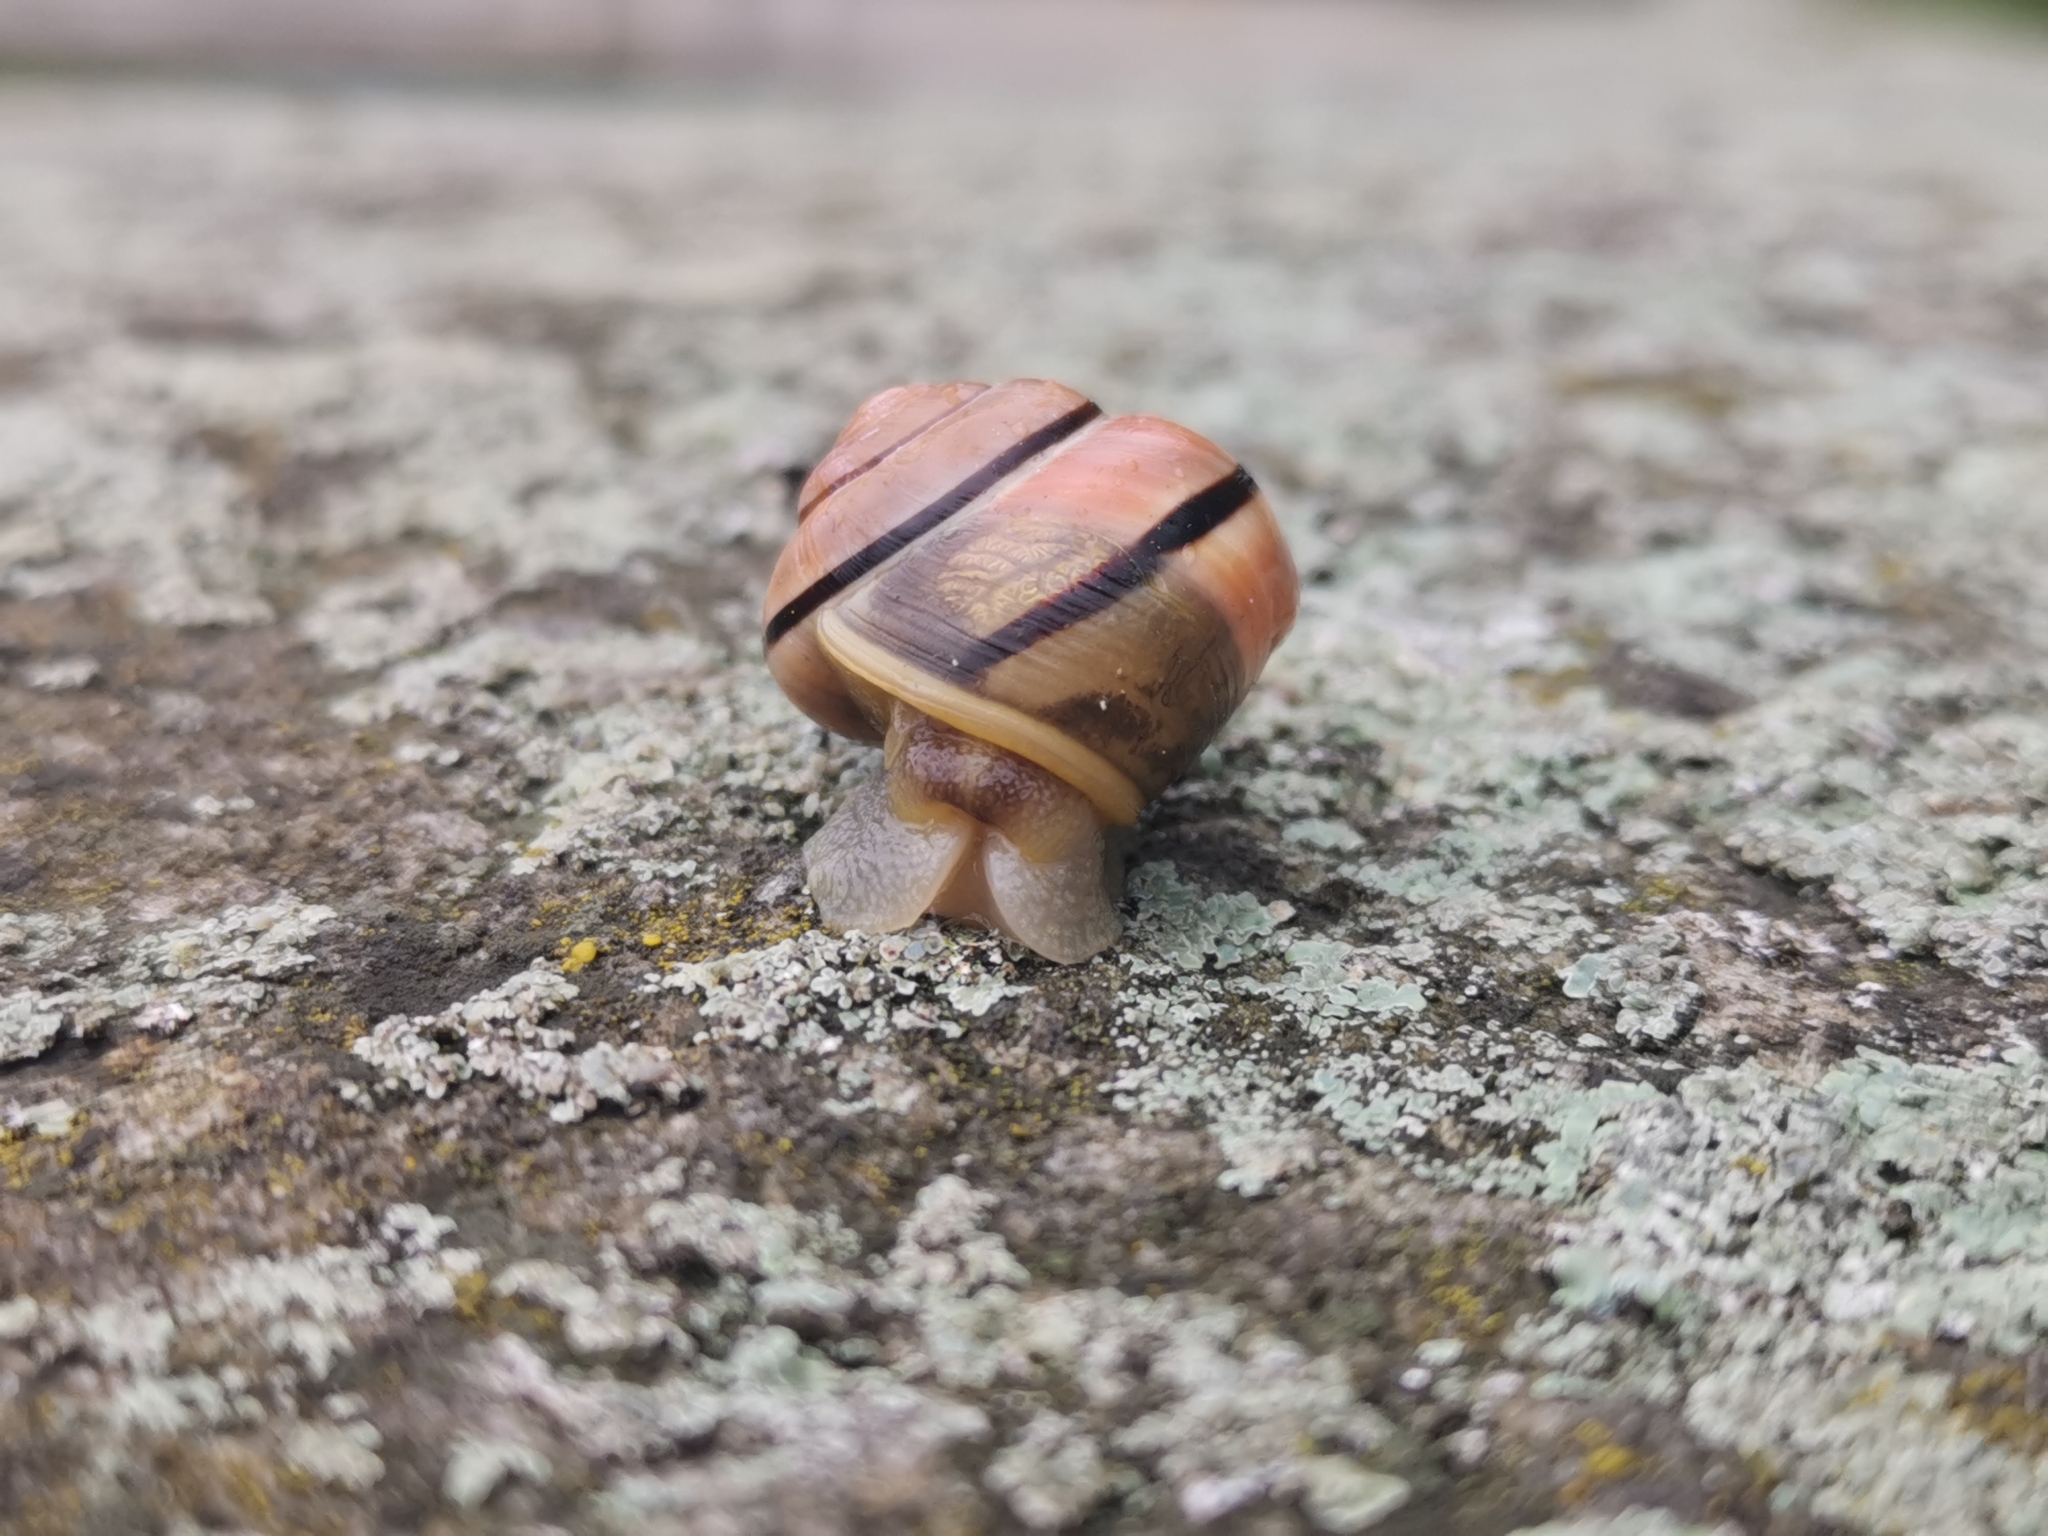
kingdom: Animalia
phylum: Mollusca
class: Gastropoda
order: Stylommatophora
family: Helicidae
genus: Cepaea
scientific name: Cepaea nemoralis
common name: Grovesnail
